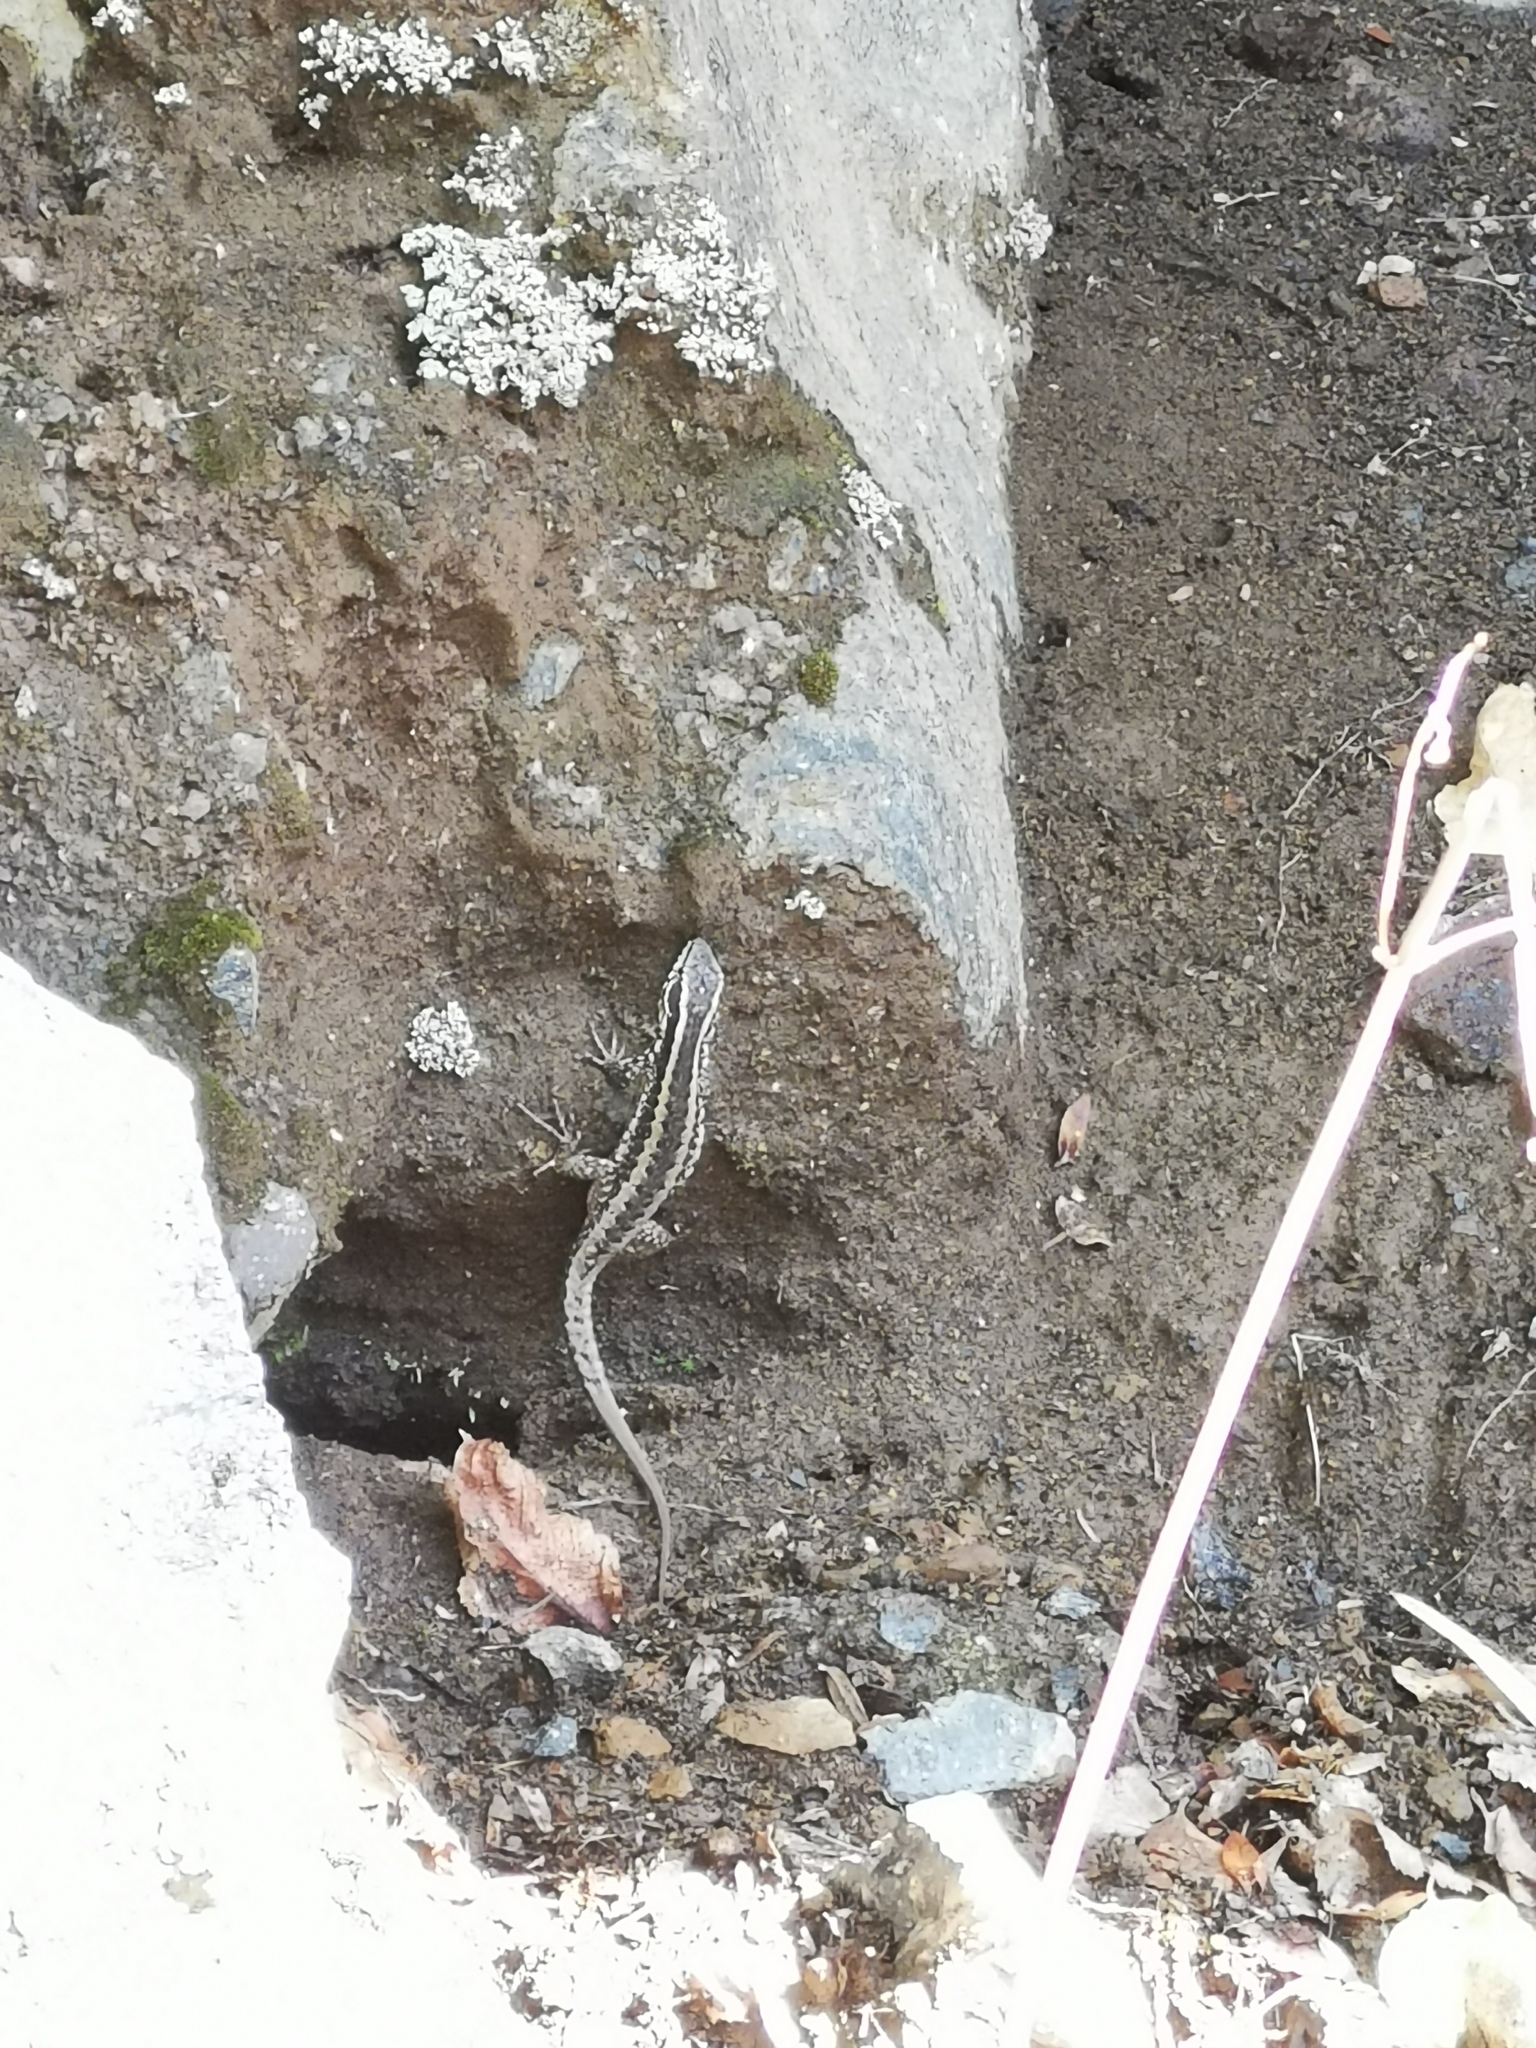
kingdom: Animalia
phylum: Chordata
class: Squamata
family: Liolaemidae
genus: Liolaemus
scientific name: Liolaemus septentrionalis
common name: Painted tree iguana
